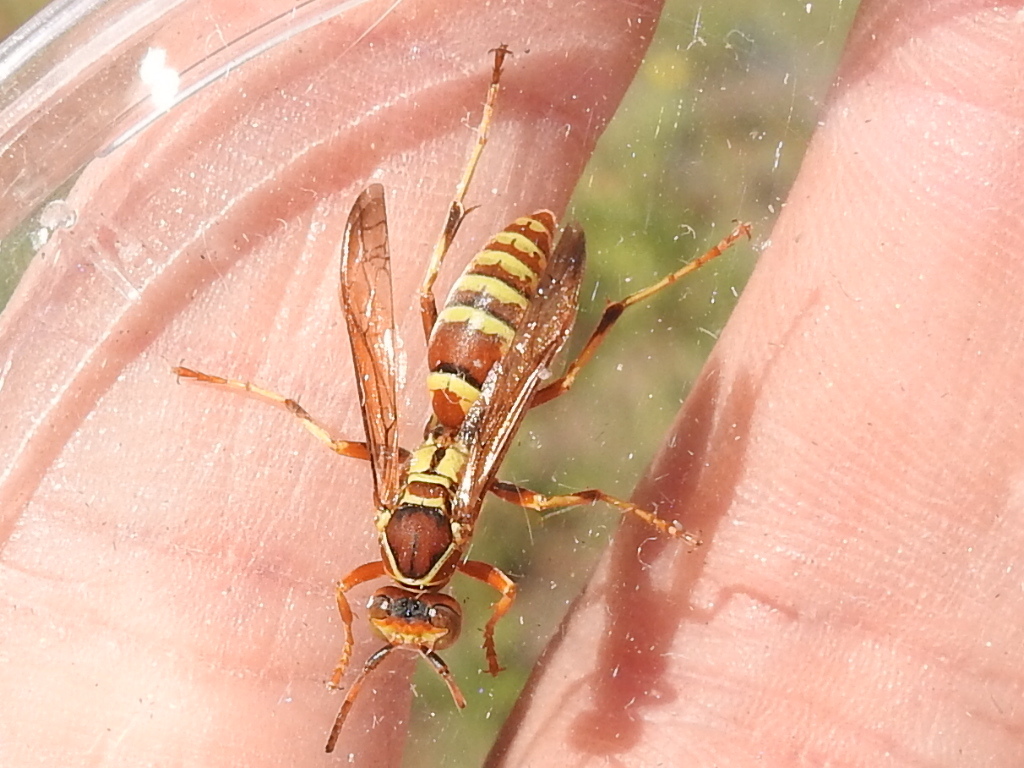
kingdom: Animalia
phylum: Arthropoda
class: Insecta
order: Hymenoptera
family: Eumenidae
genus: Polistes
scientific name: Polistes dorsalis
